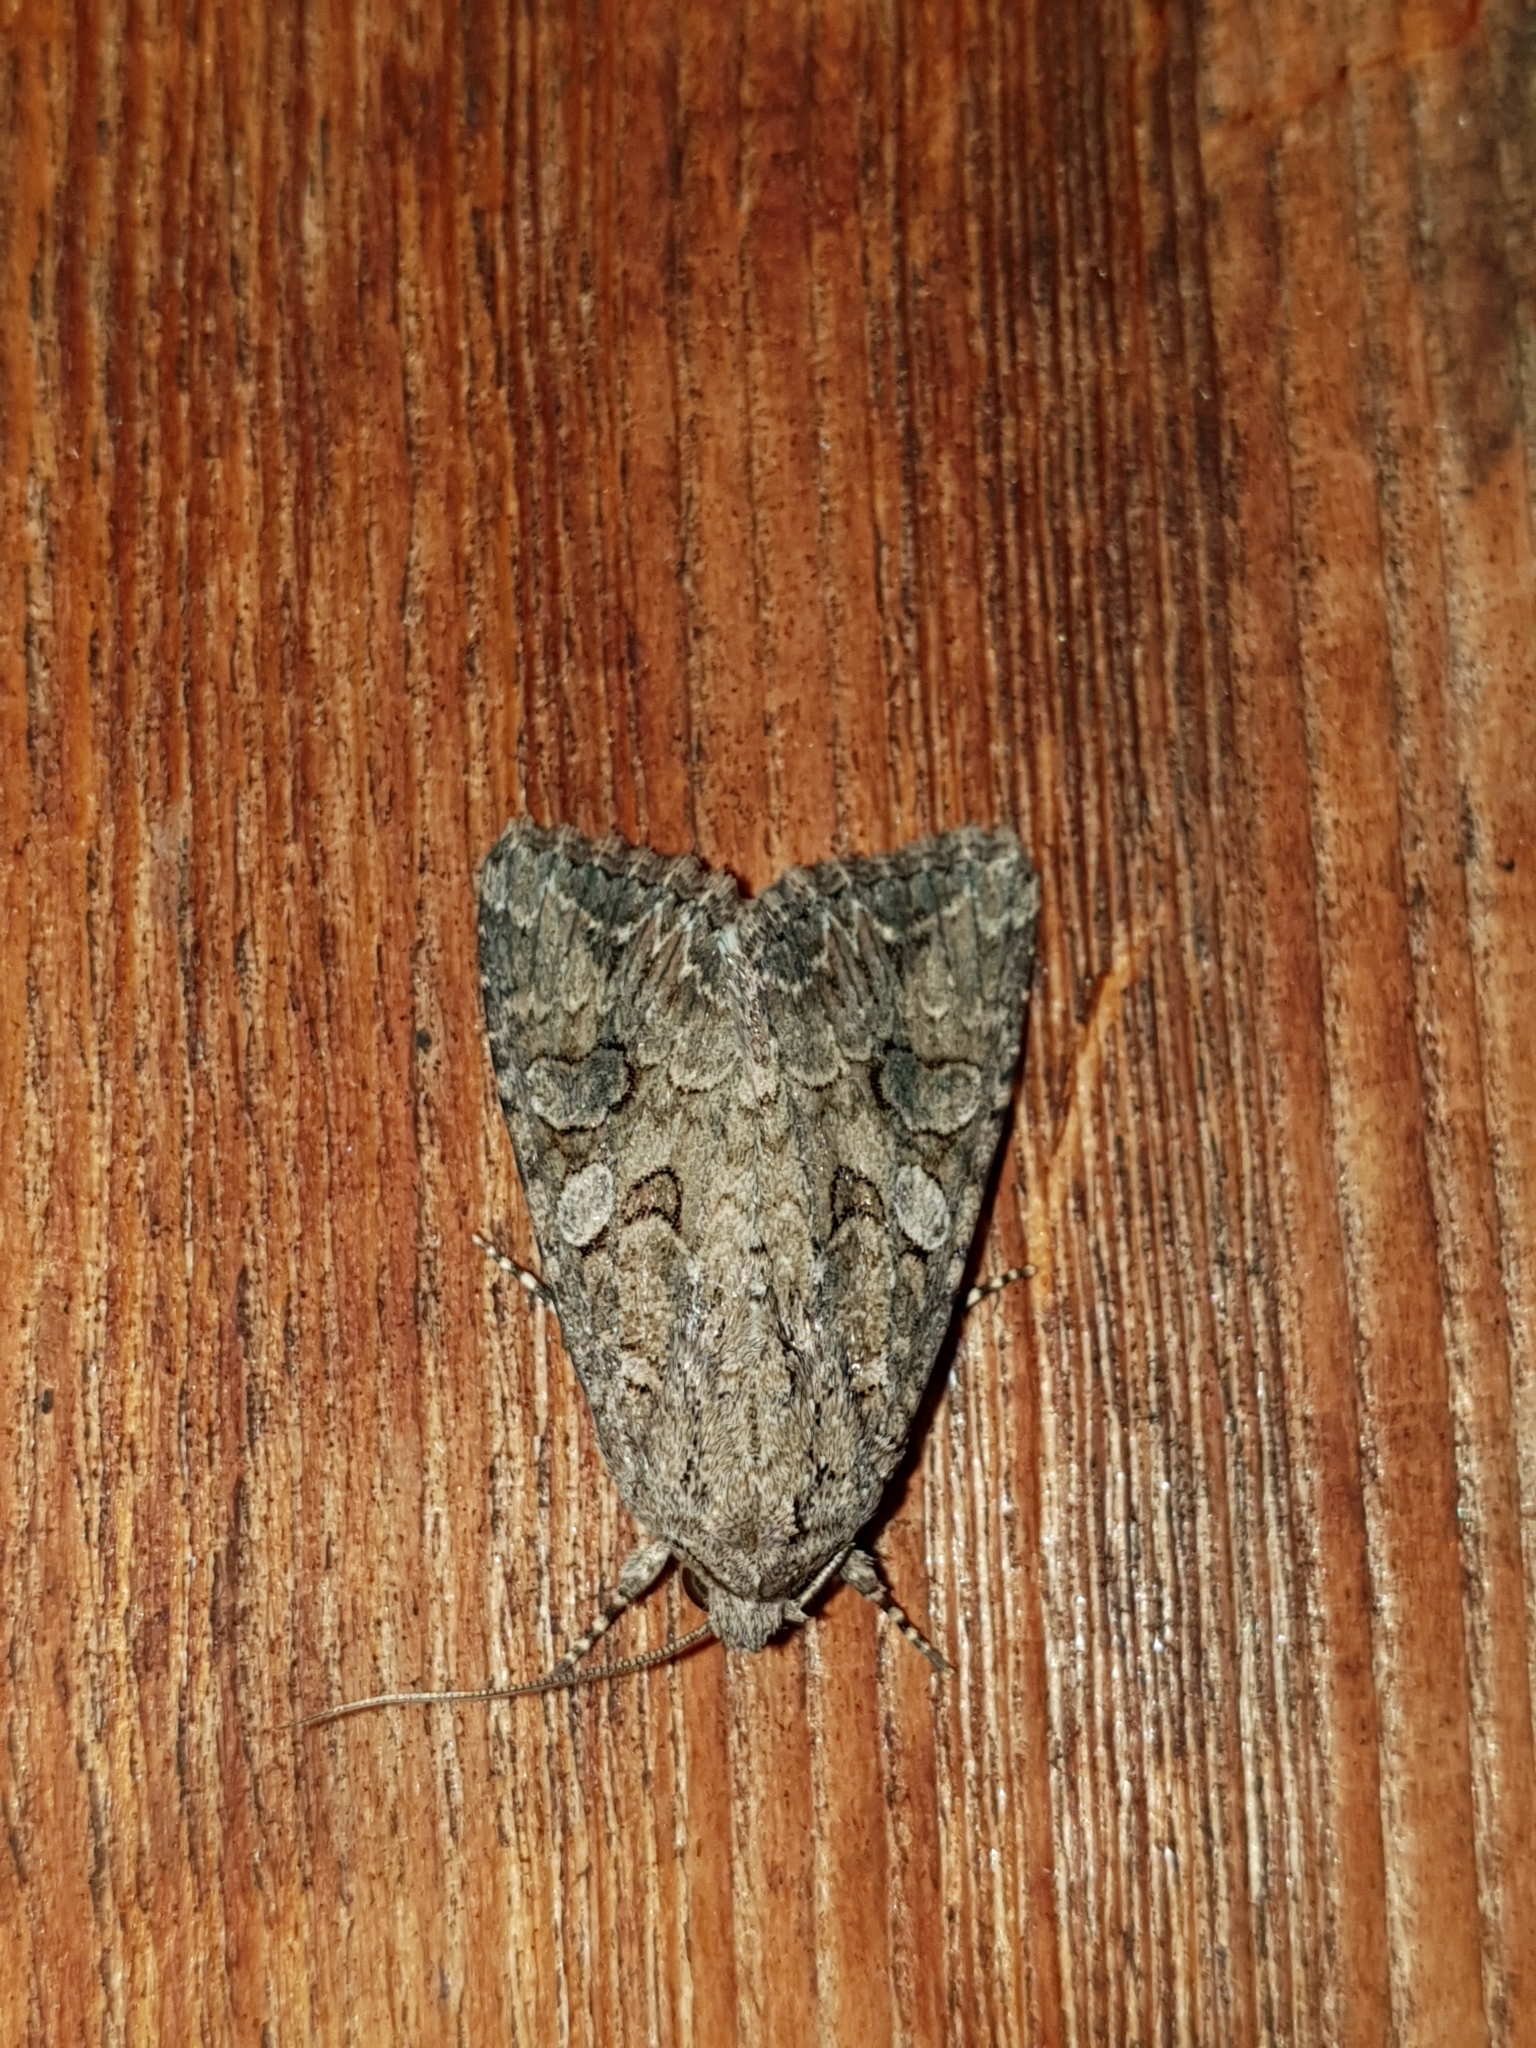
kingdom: Animalia
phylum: Arthropoda
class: Insecta
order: Lepidoptera
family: Noctuidae
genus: Anarta
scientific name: Anarta trifolii
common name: Clover cutworm moth
